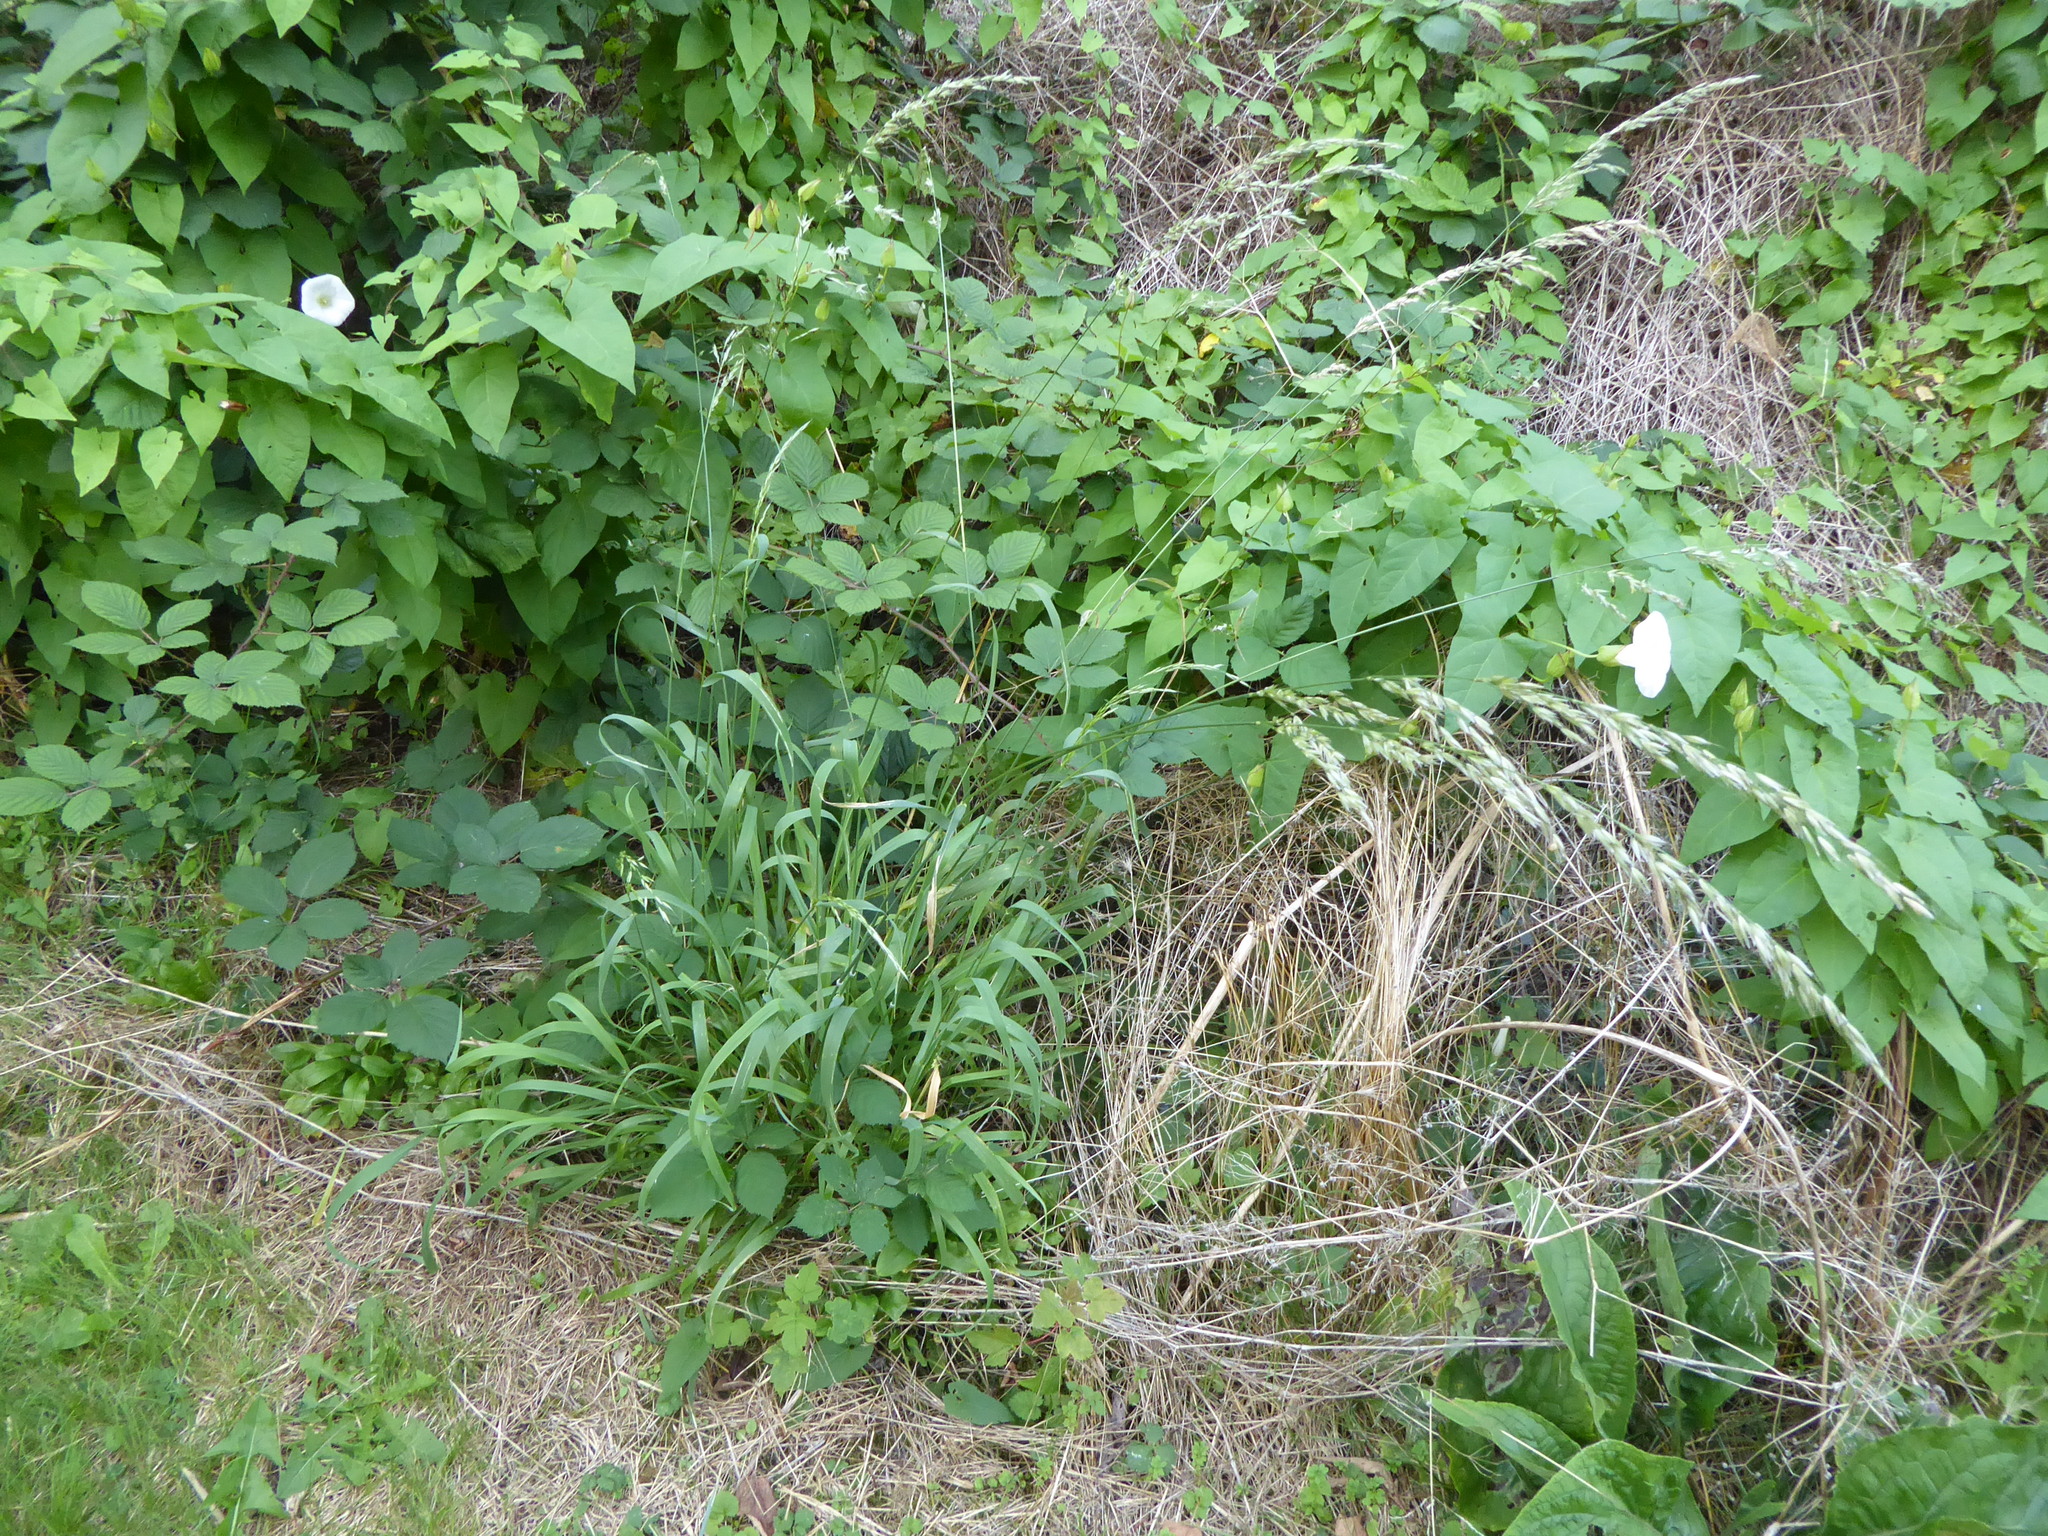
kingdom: Plantae
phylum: Tracheophyta
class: Liliopsida
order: Poales
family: Poaceae
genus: Arrhenatherum
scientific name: Arrhenatherum elatius
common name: Tall oatgrass
